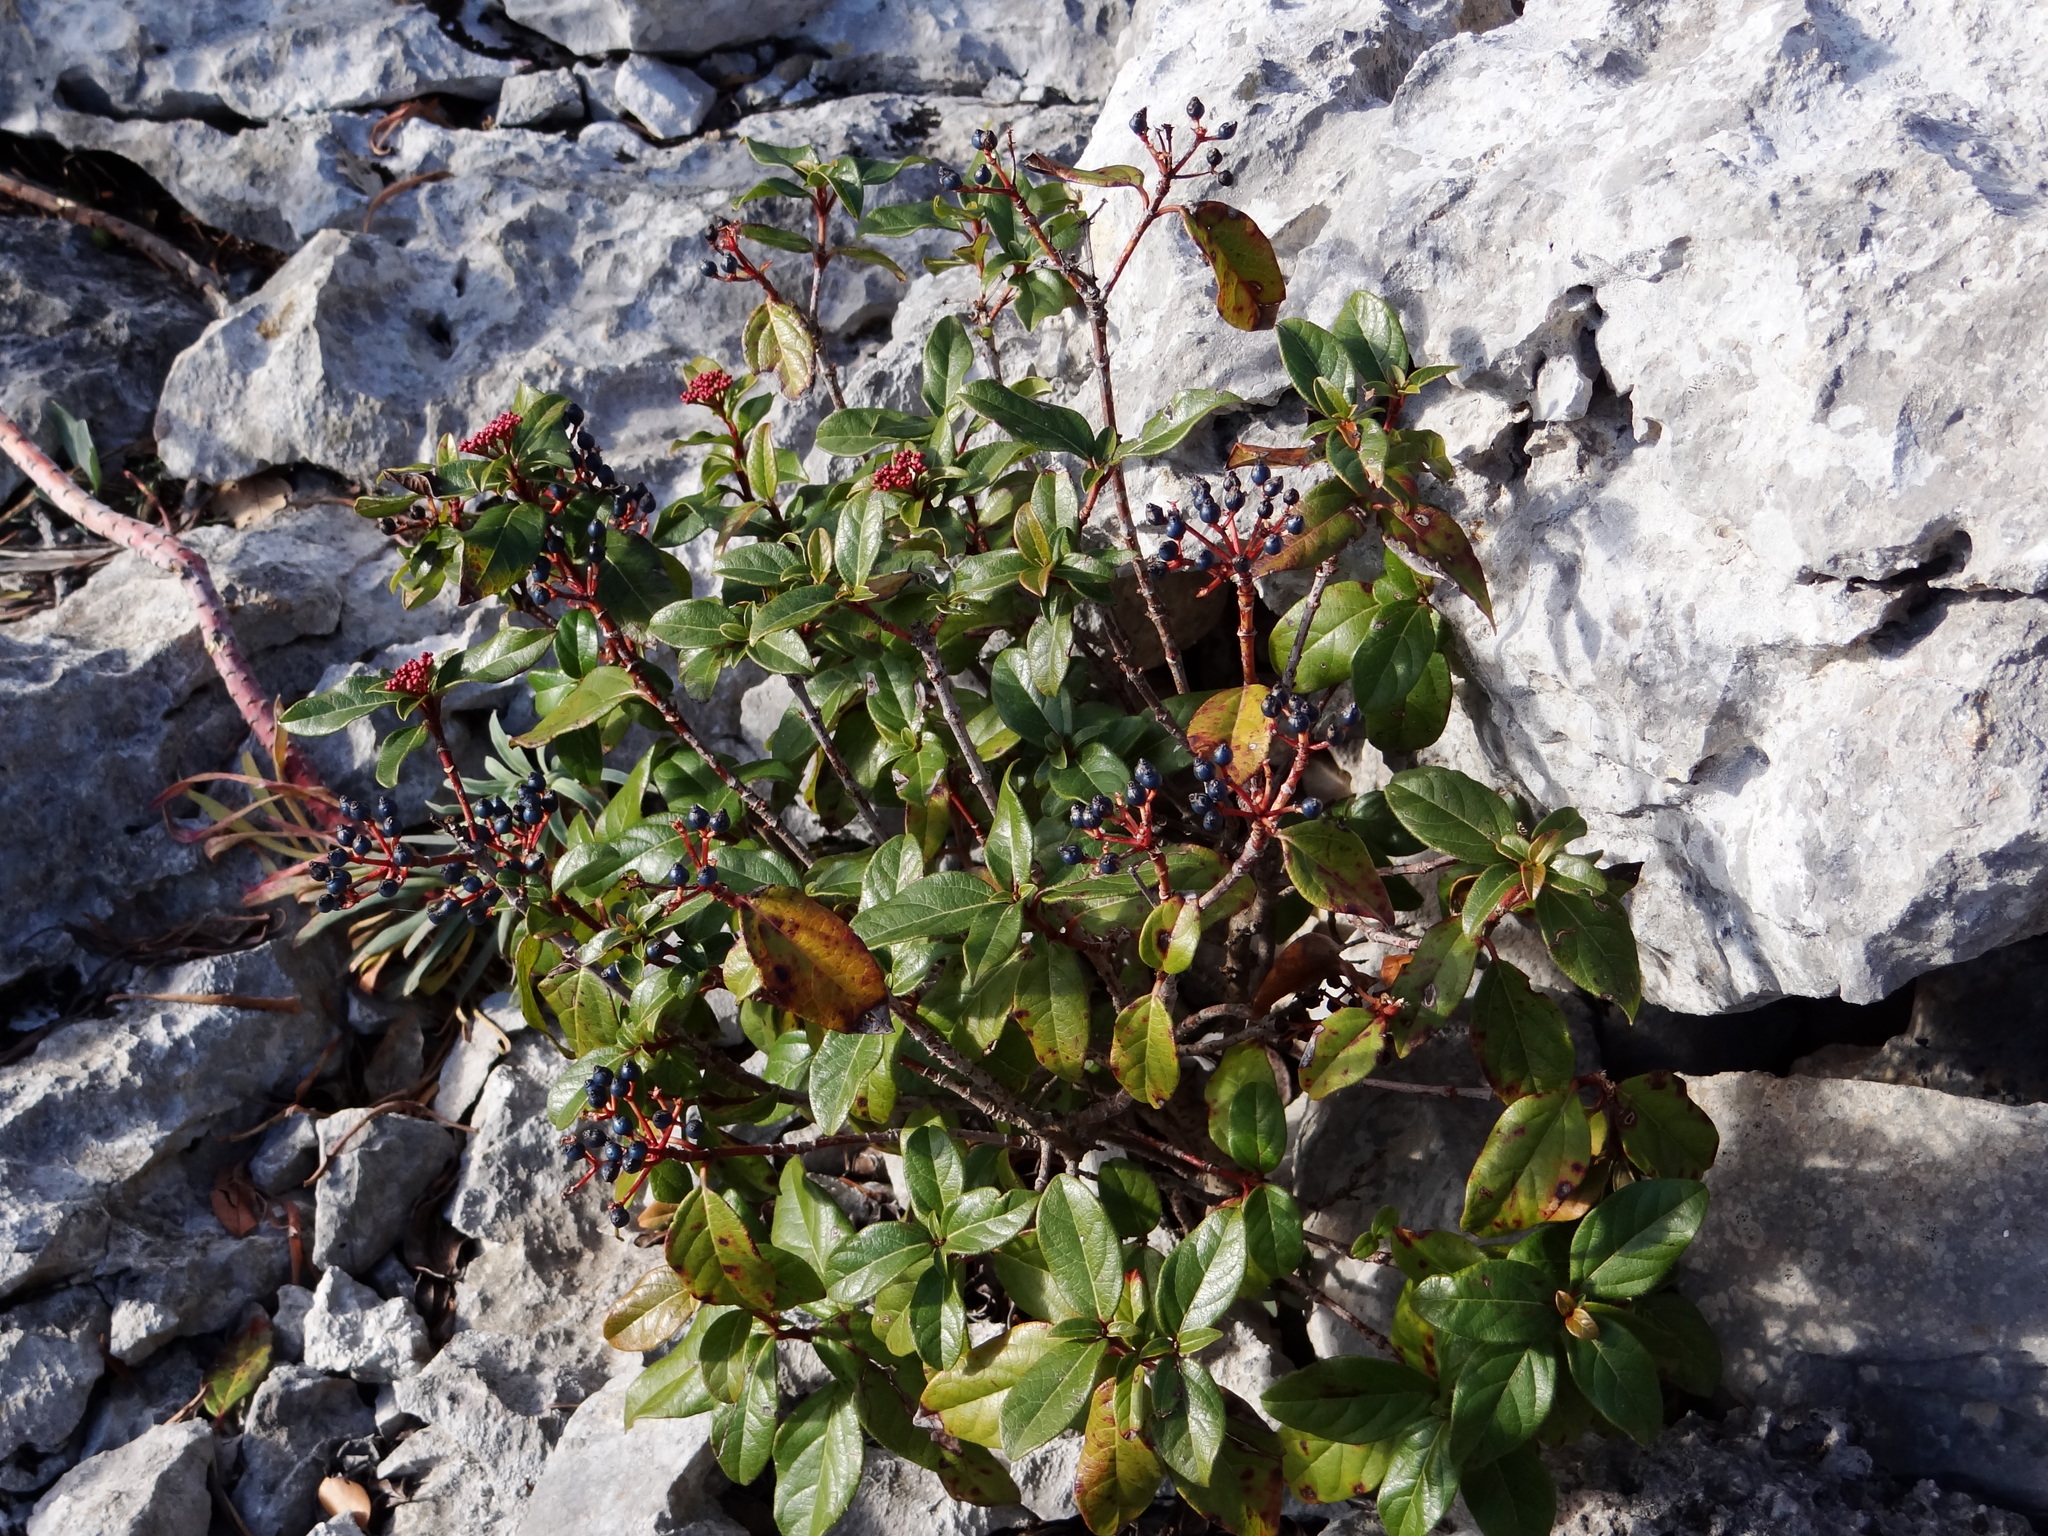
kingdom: Plantae
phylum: Tracheophyta
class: Magnoliopsida
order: Dipsacales
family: Viburnaceae
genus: Viburnum
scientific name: Viburnum tinus
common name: Laurustinus
